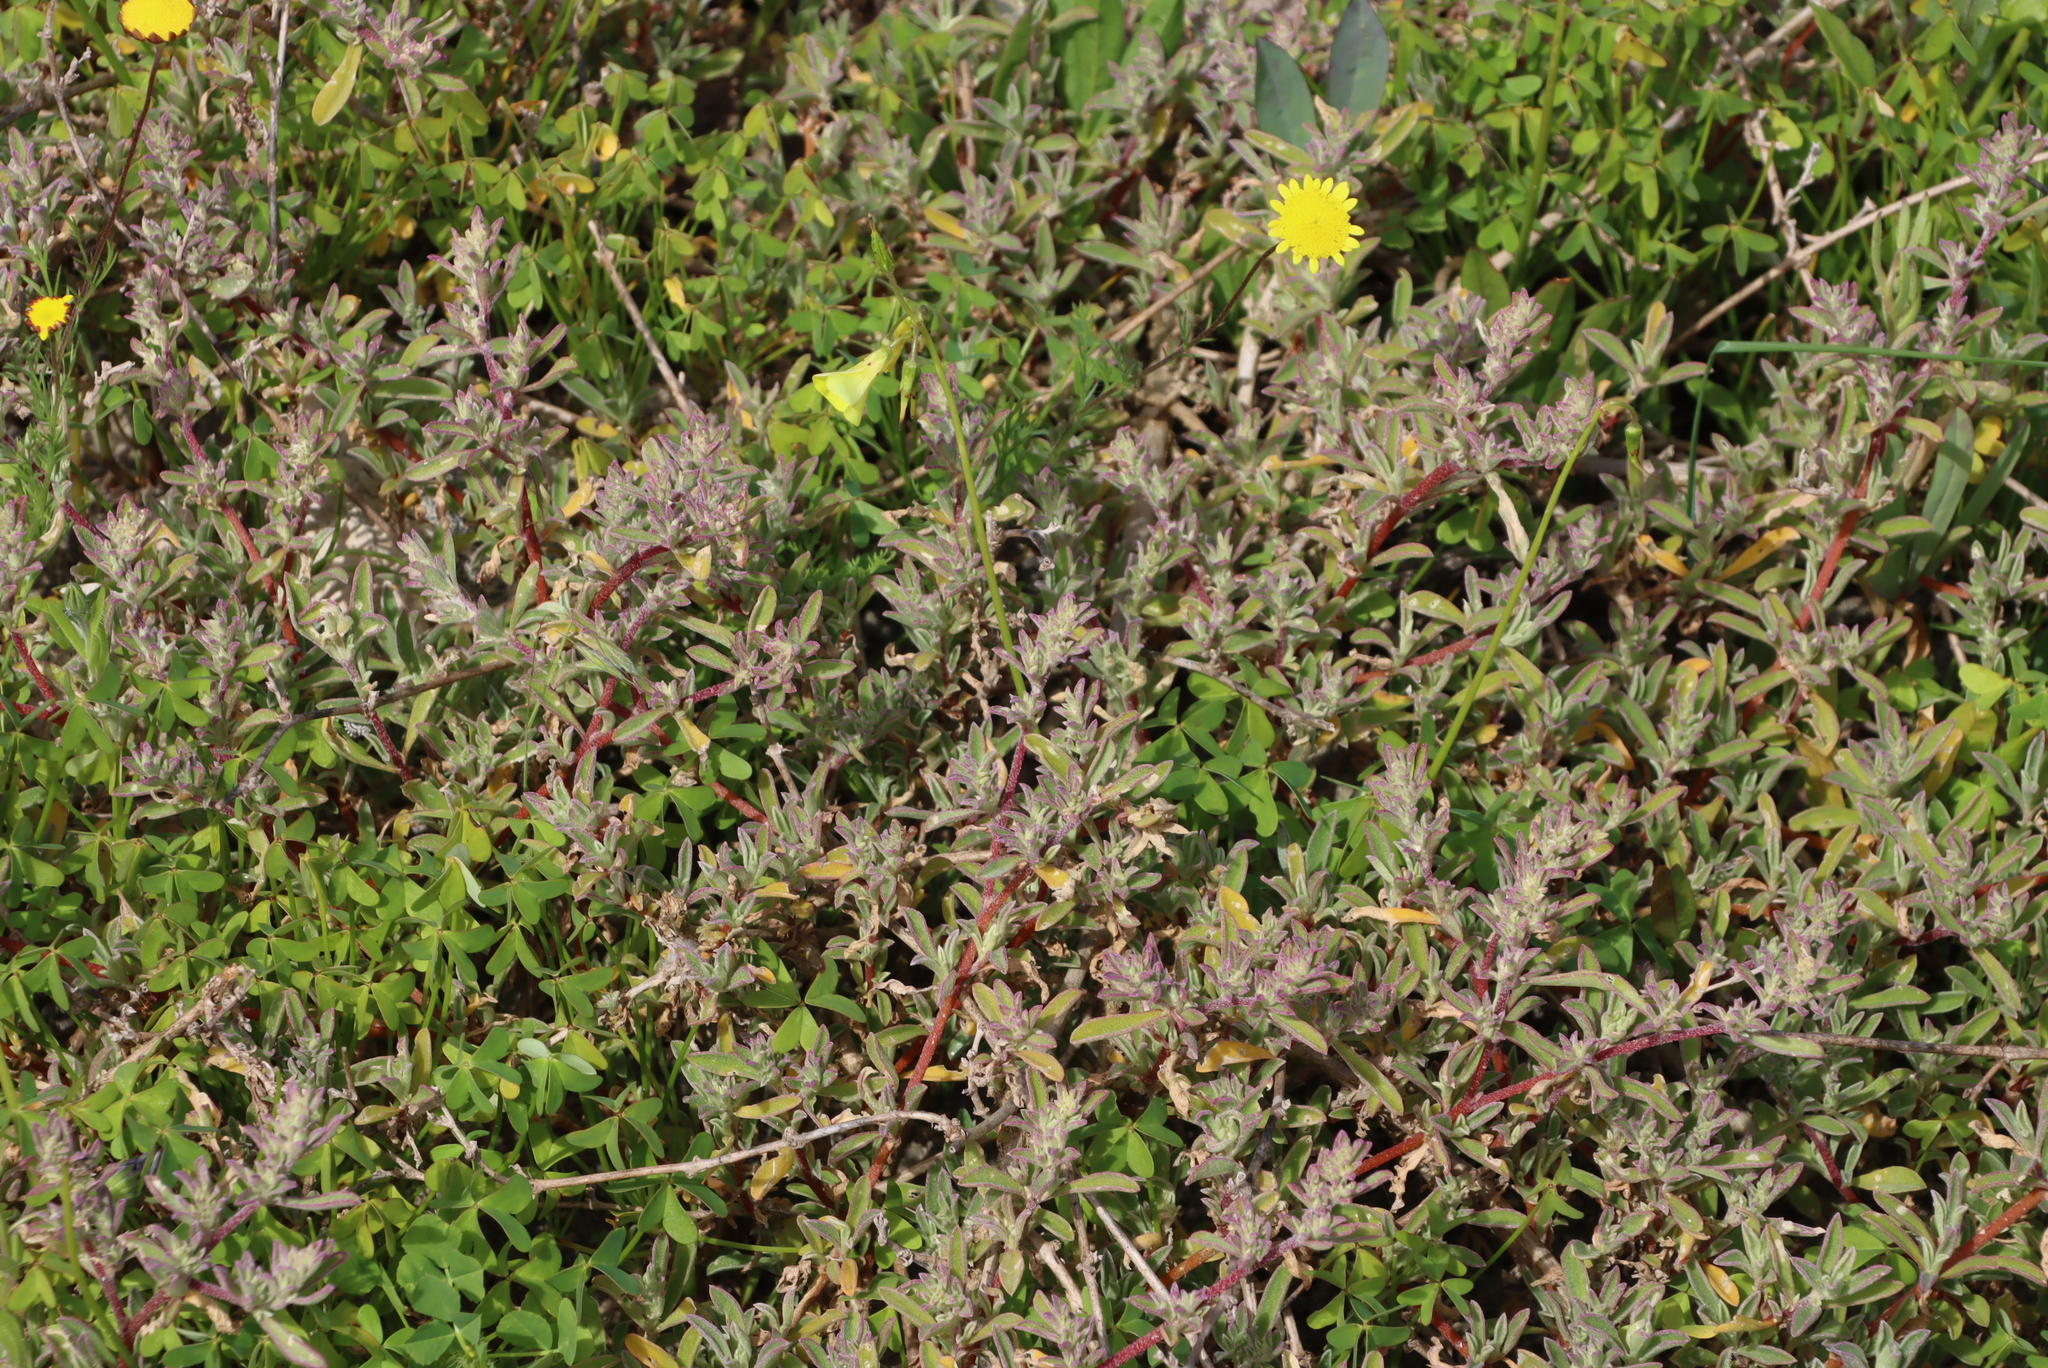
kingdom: Plantae
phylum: Tracheophyta
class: Magnoliopsida
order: Caryophyllales
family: Amaranthaceae
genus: Atriplex
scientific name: Atriplex semibaccata
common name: Australian saltbush
